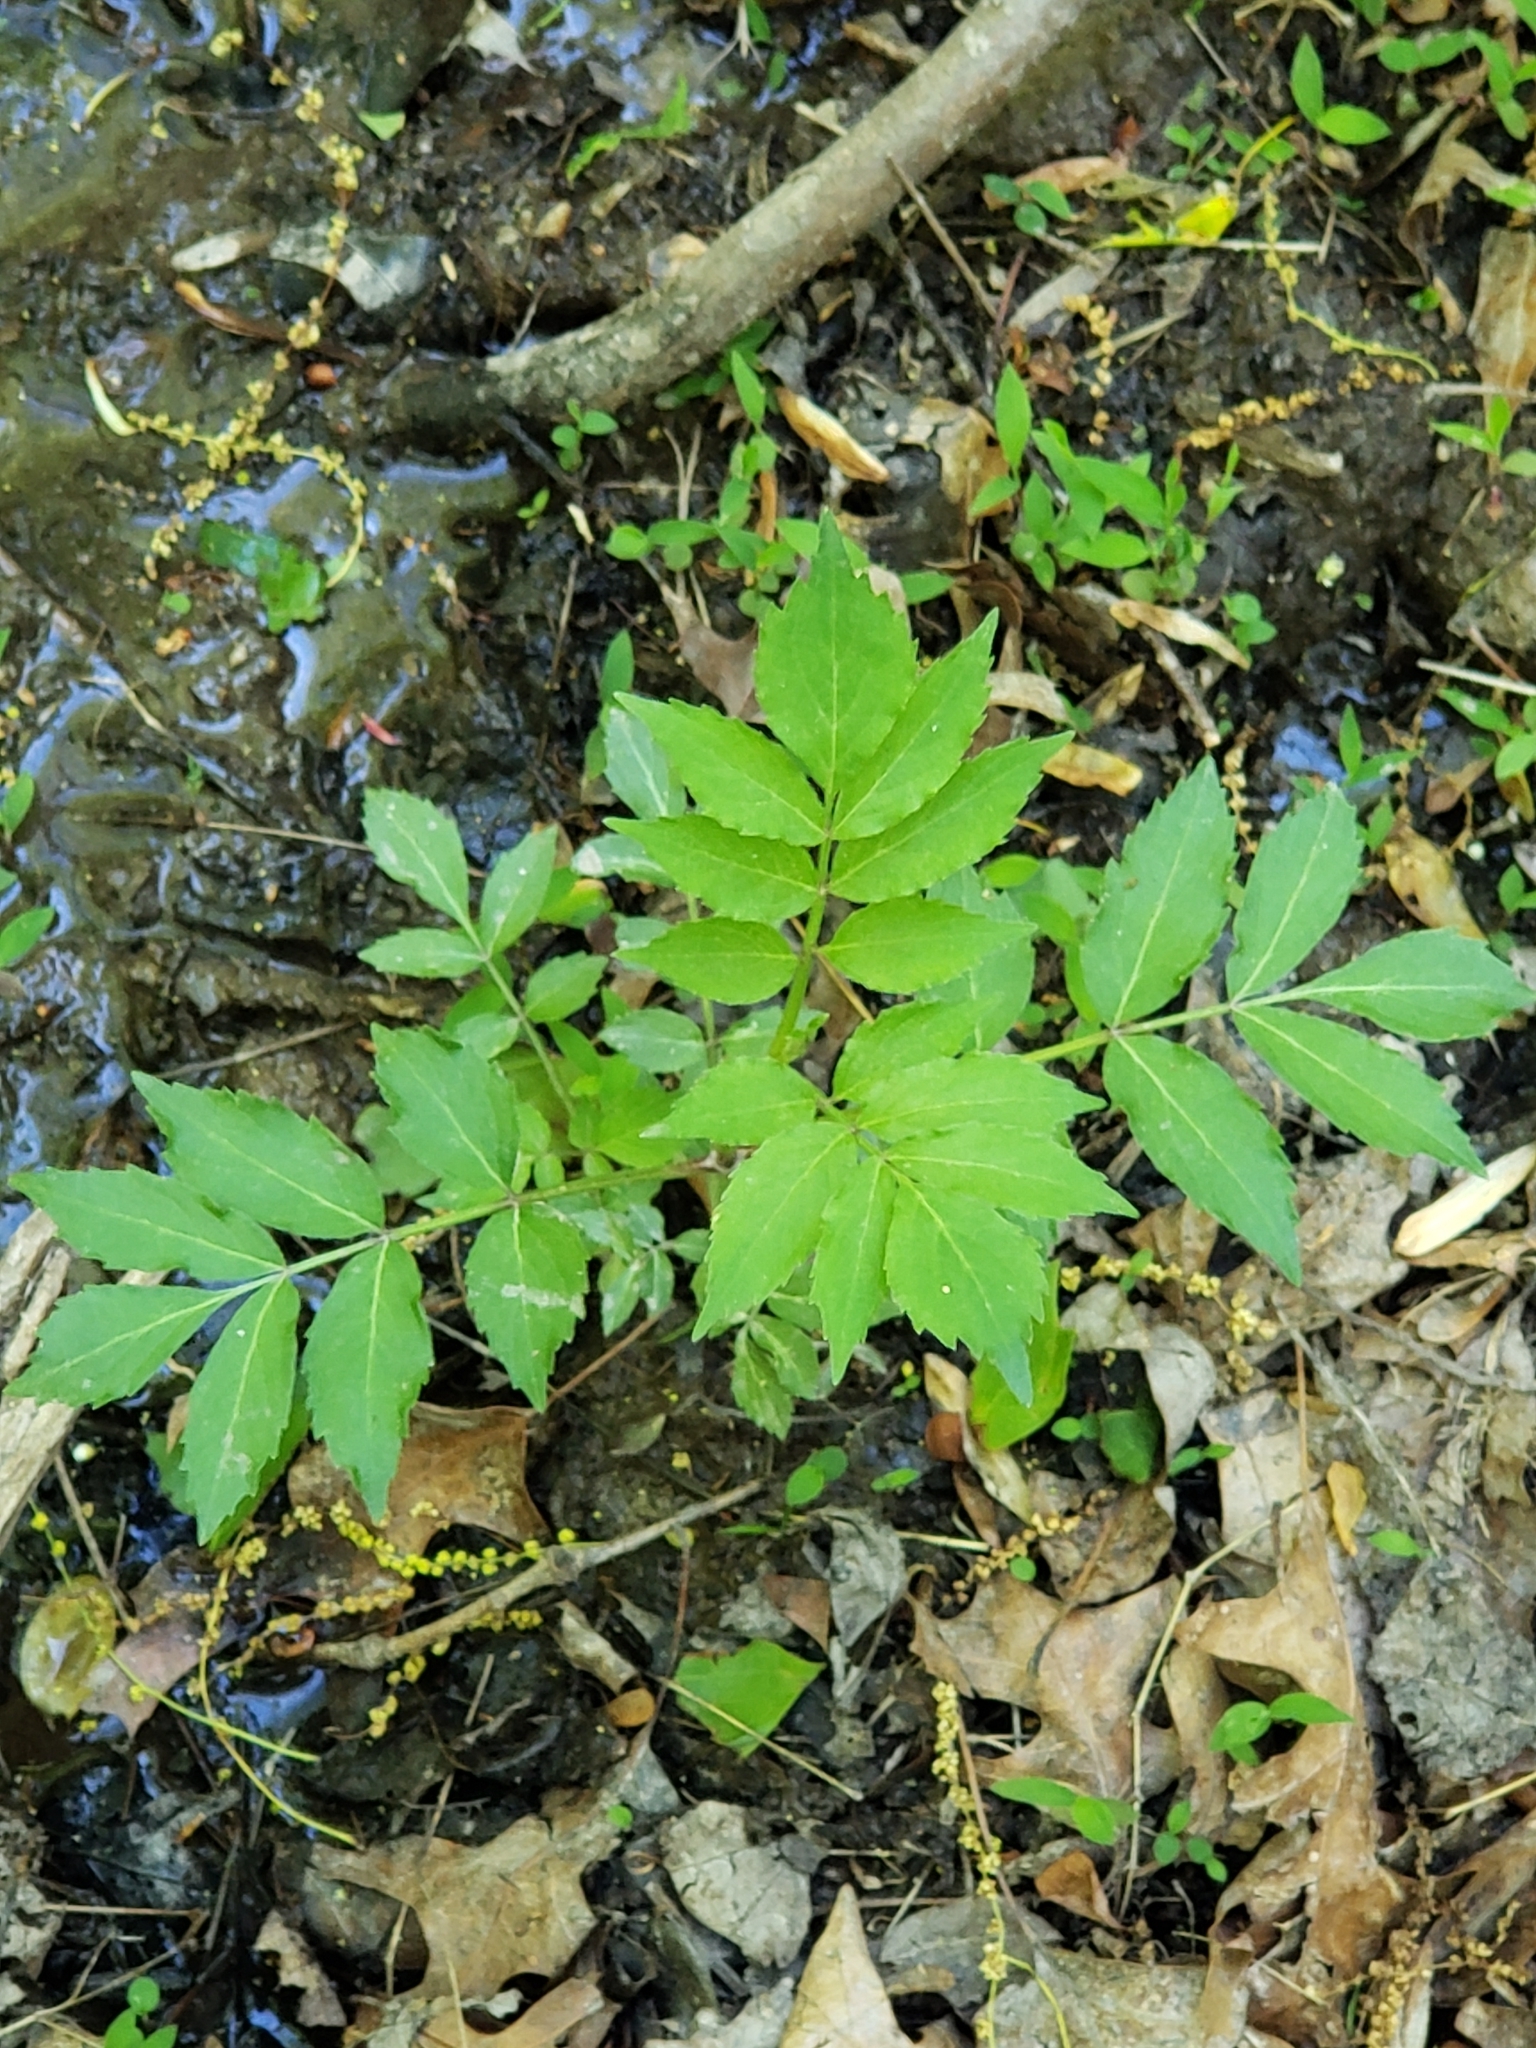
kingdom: Plantae
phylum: Tracheophyta
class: Magnoliopsida
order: Dipsacales
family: Viburnaceae
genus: Sambucus
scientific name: Sambucus canadensis
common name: American elder
